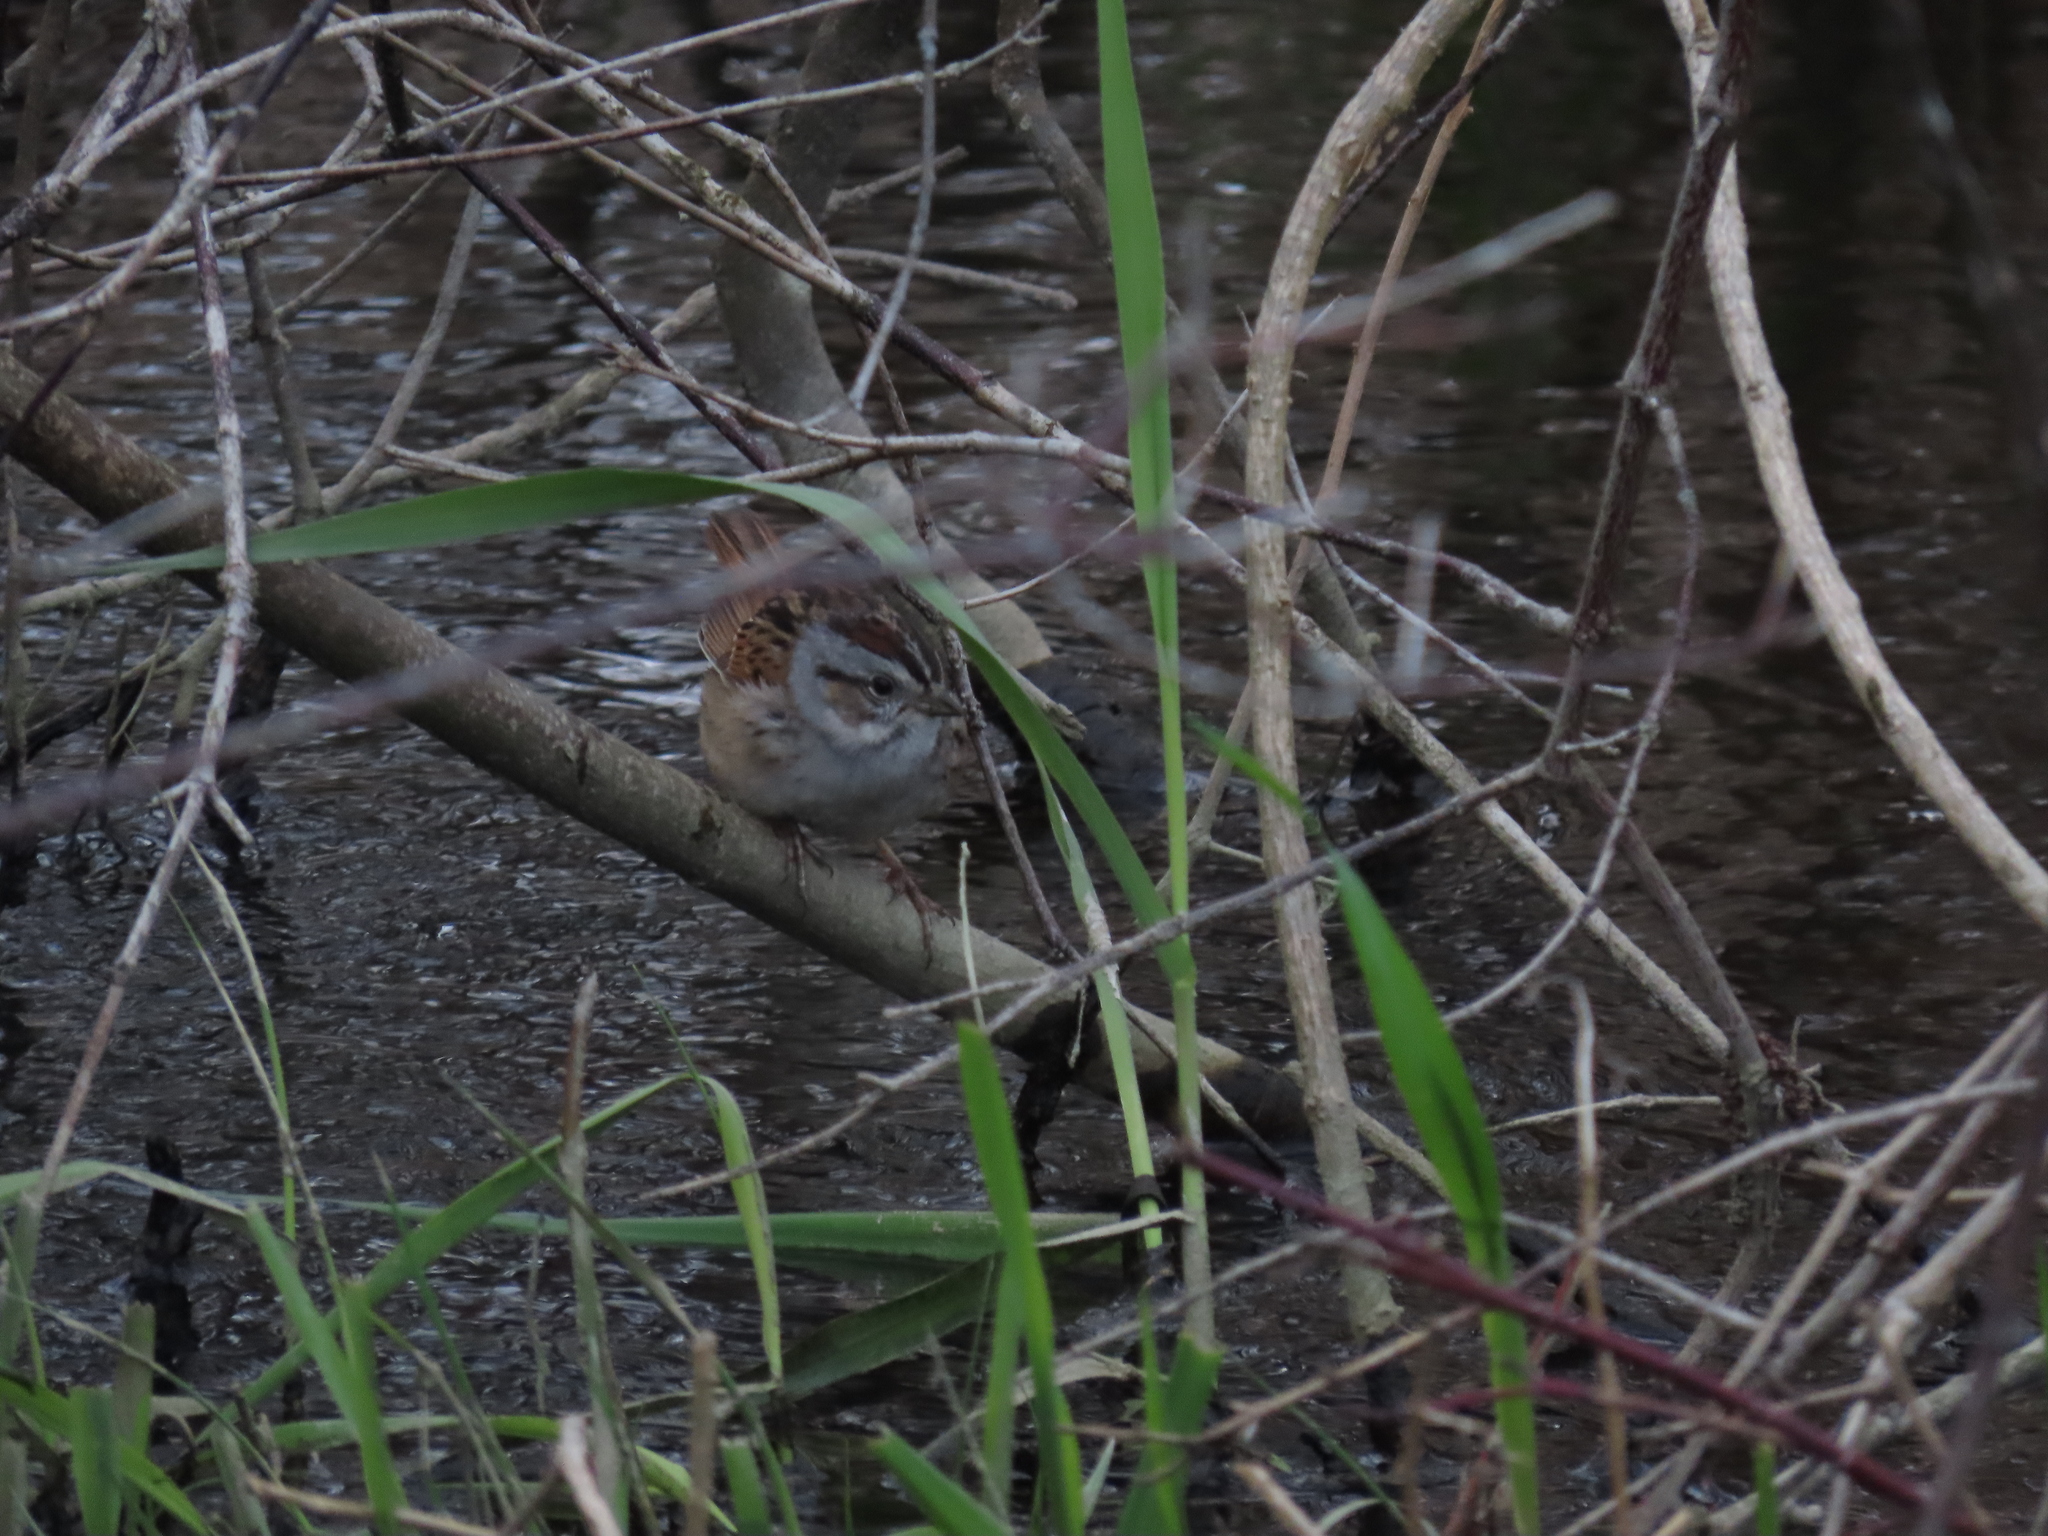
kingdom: Animalia
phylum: Chordata
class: Aves
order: Passeriformes
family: Passerellidae
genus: Melospiza
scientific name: Melospiza georgiana
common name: Swamp sparrow
